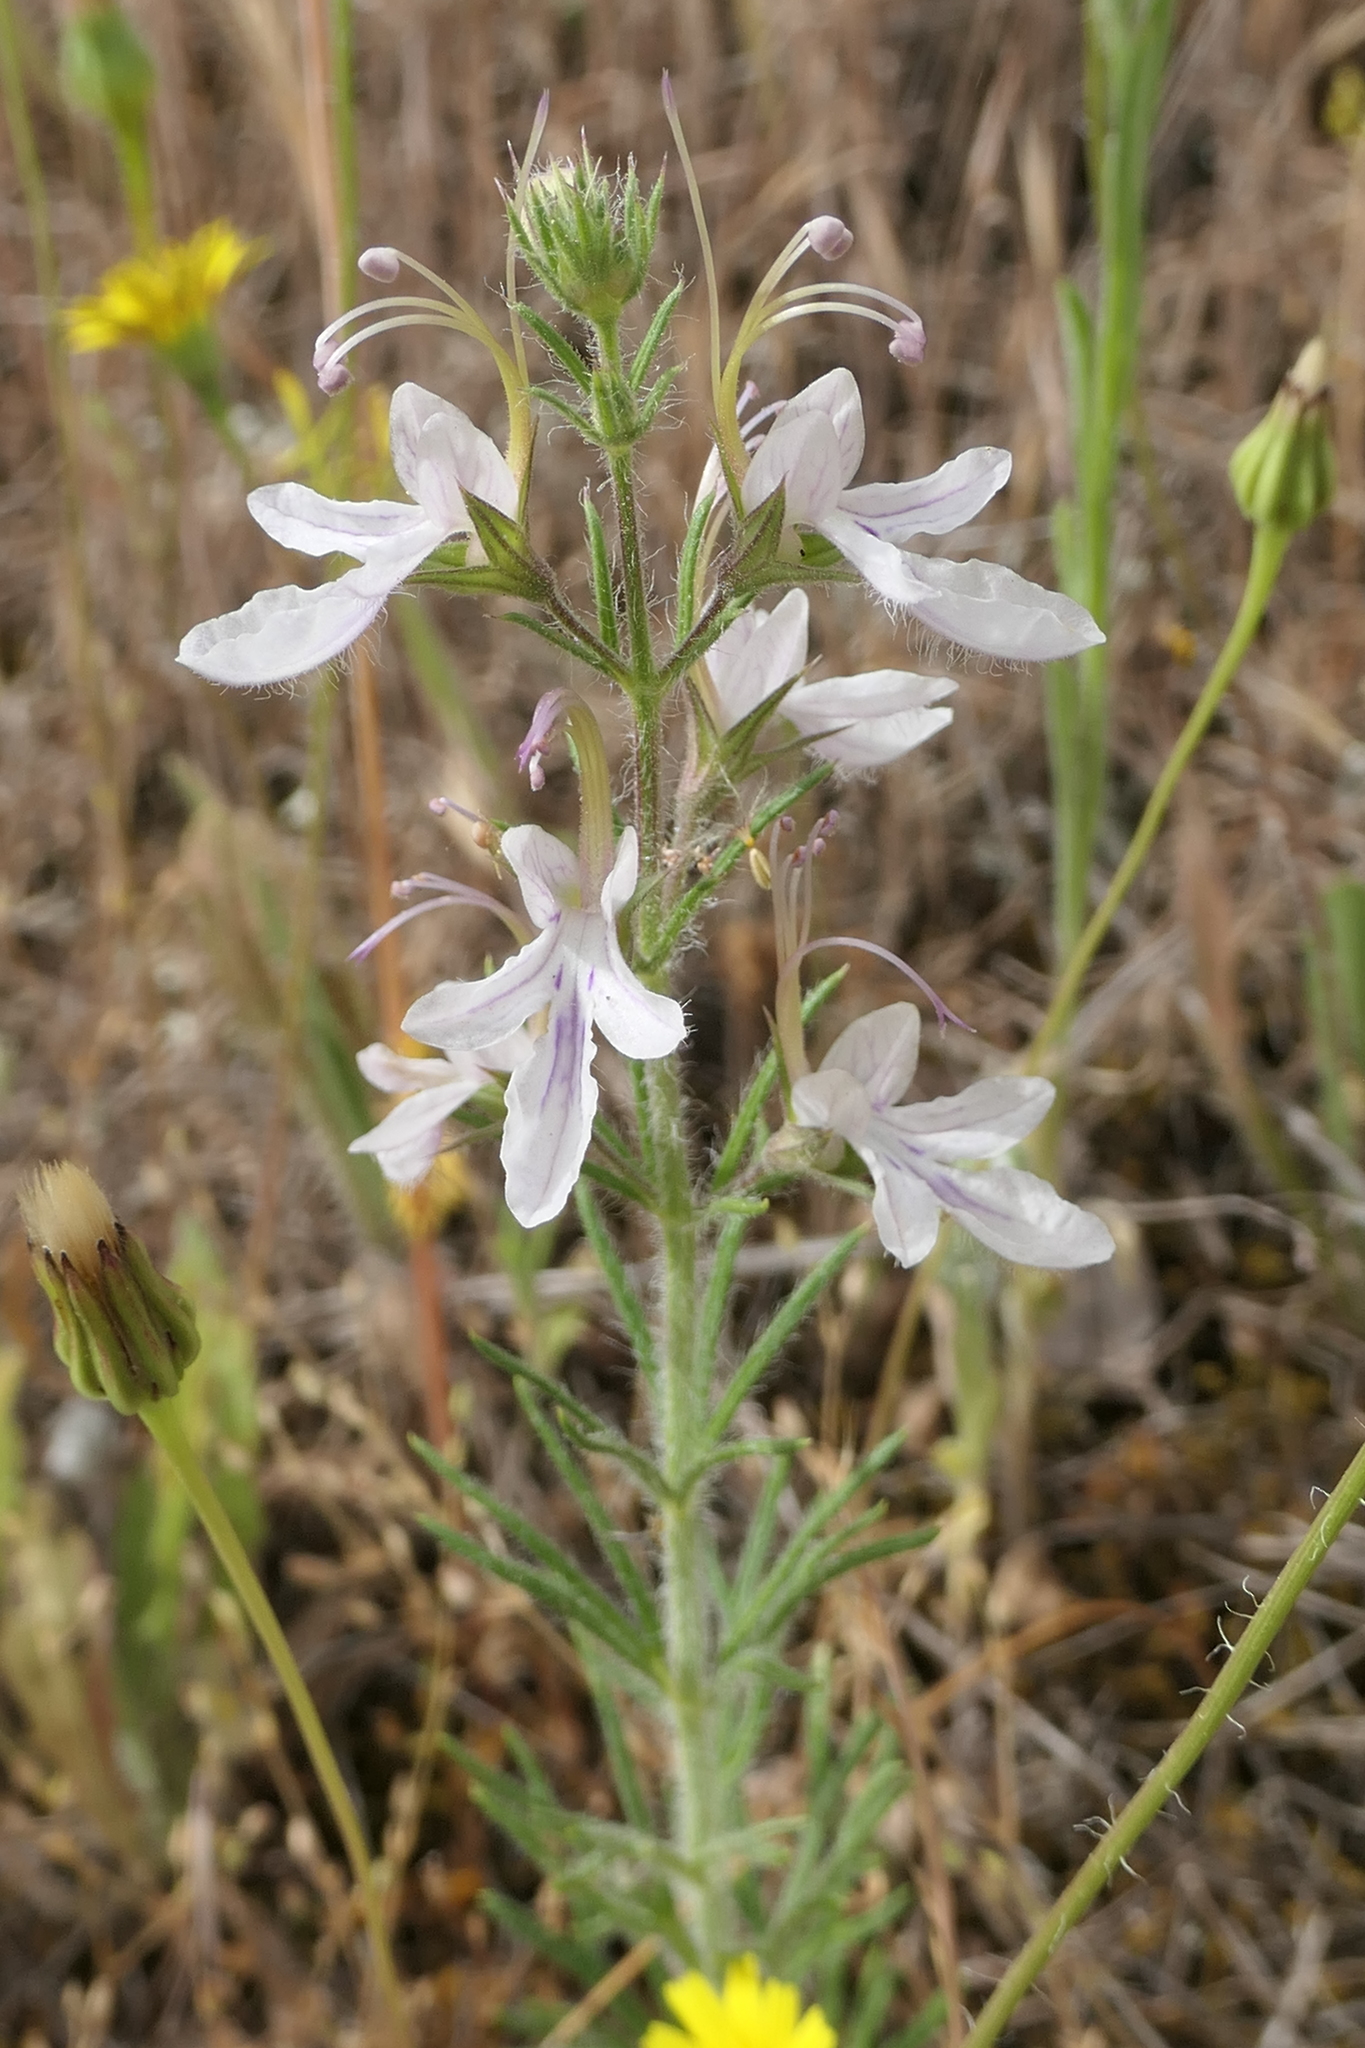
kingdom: Plantae
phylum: Tracheophyta
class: Magnoliopsida
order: Lamiales
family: Lamiaceae
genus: Teucrium
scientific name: Teucrium pseudochamaepitys
